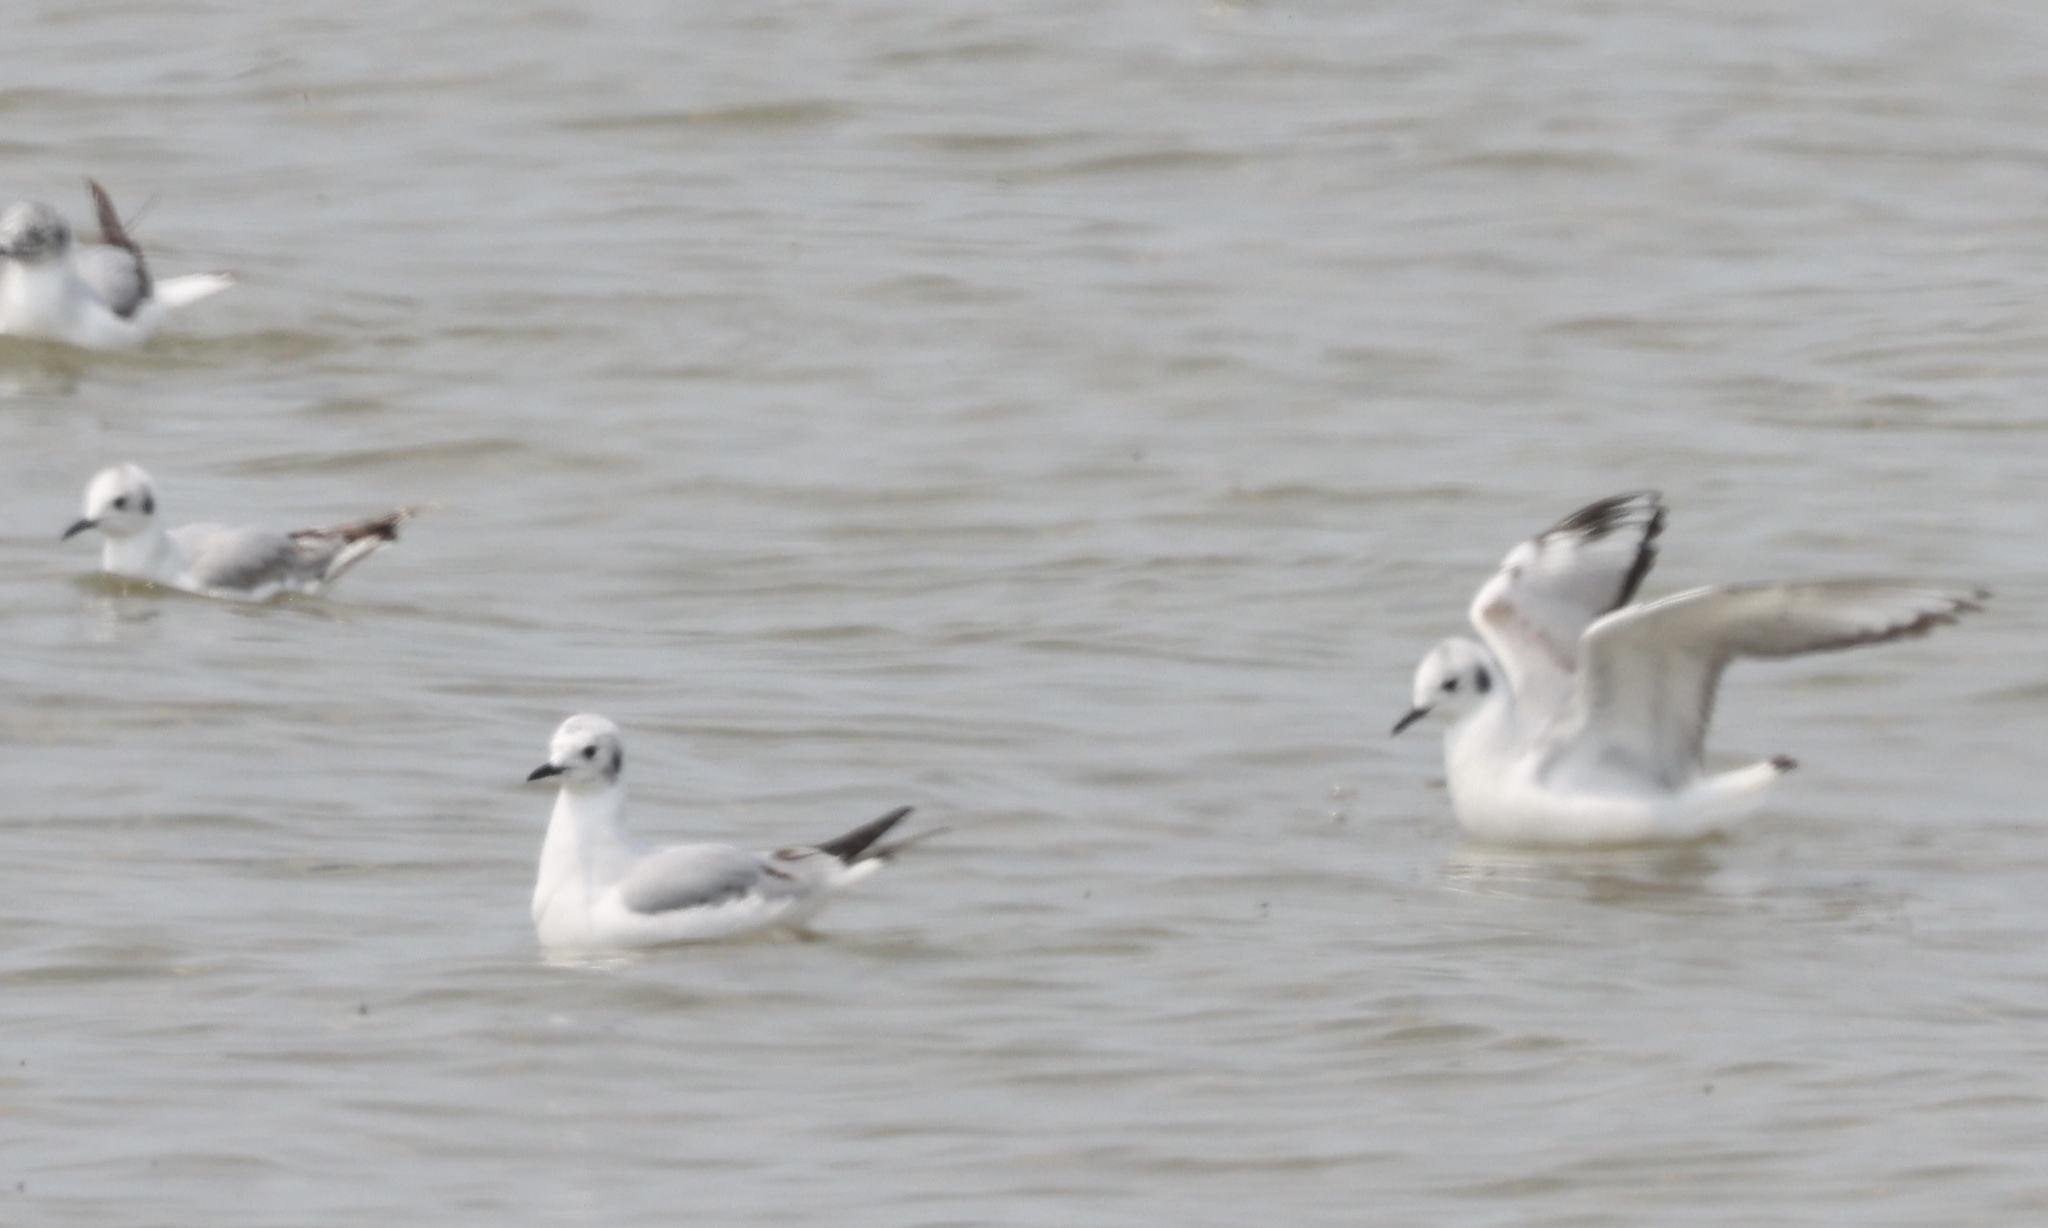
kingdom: Animalia
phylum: Chordata
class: Aves
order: Charadriiformes
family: Laridae
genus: Chroicocephalus
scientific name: Chroicocephalus philadelphia
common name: Bonaparte's gull
